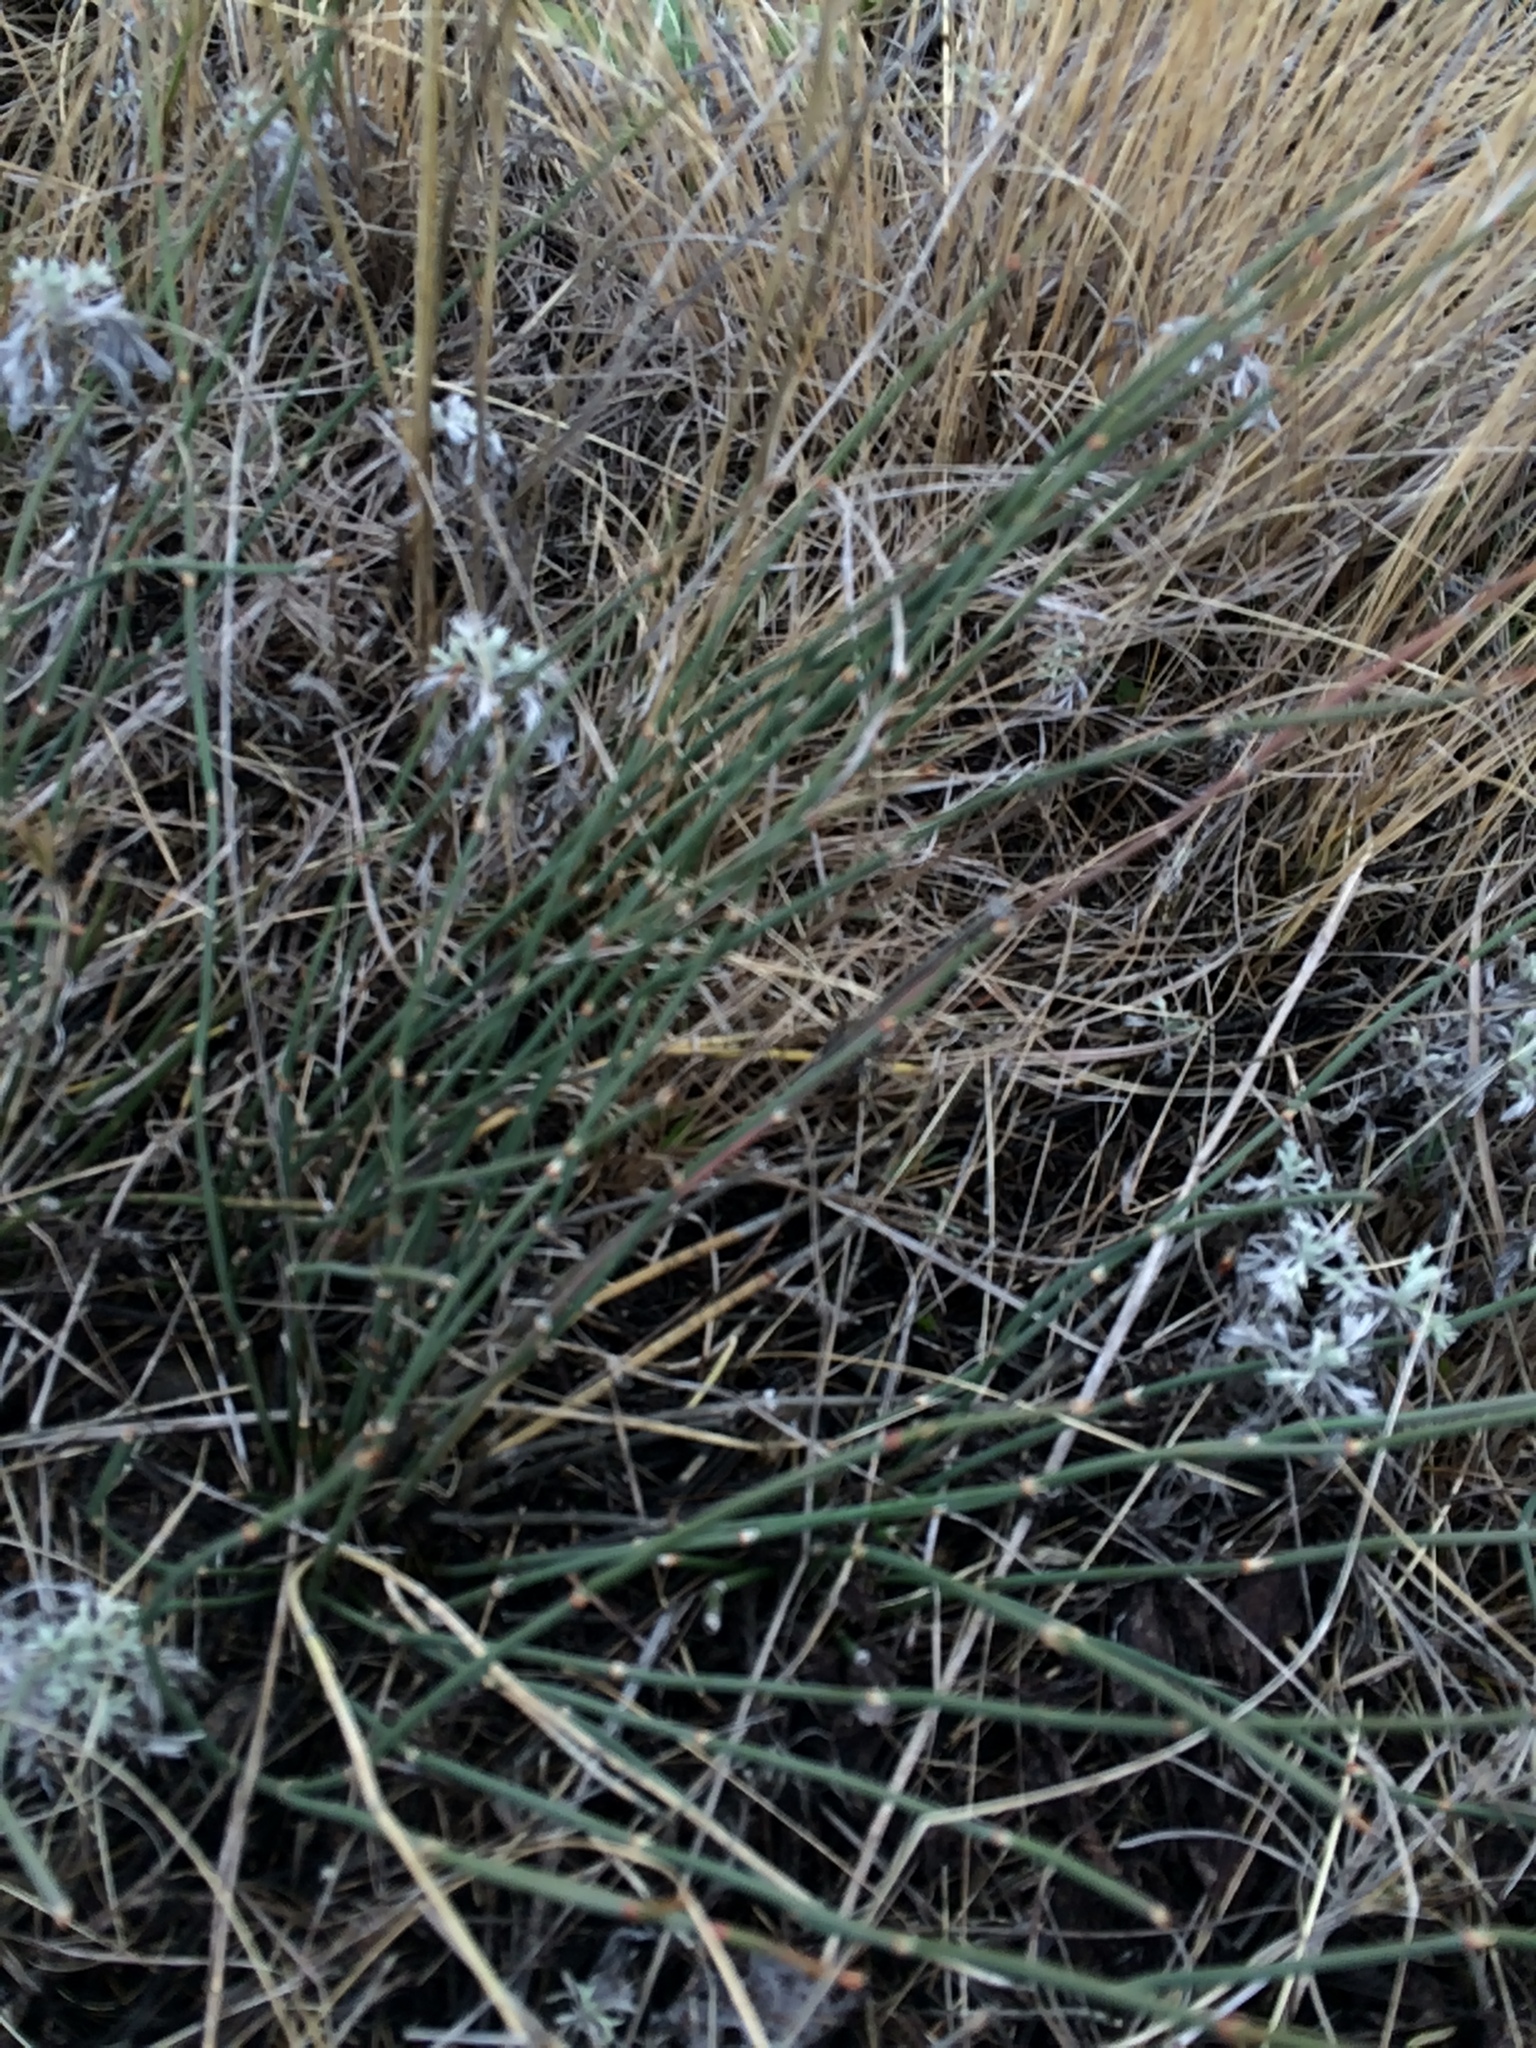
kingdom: Plantae
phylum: Tracheophyta
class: Gnetopsida
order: Ephedrales
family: Ephedraceae
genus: Ephedra
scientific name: Ephedra distachya
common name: Sea grape
